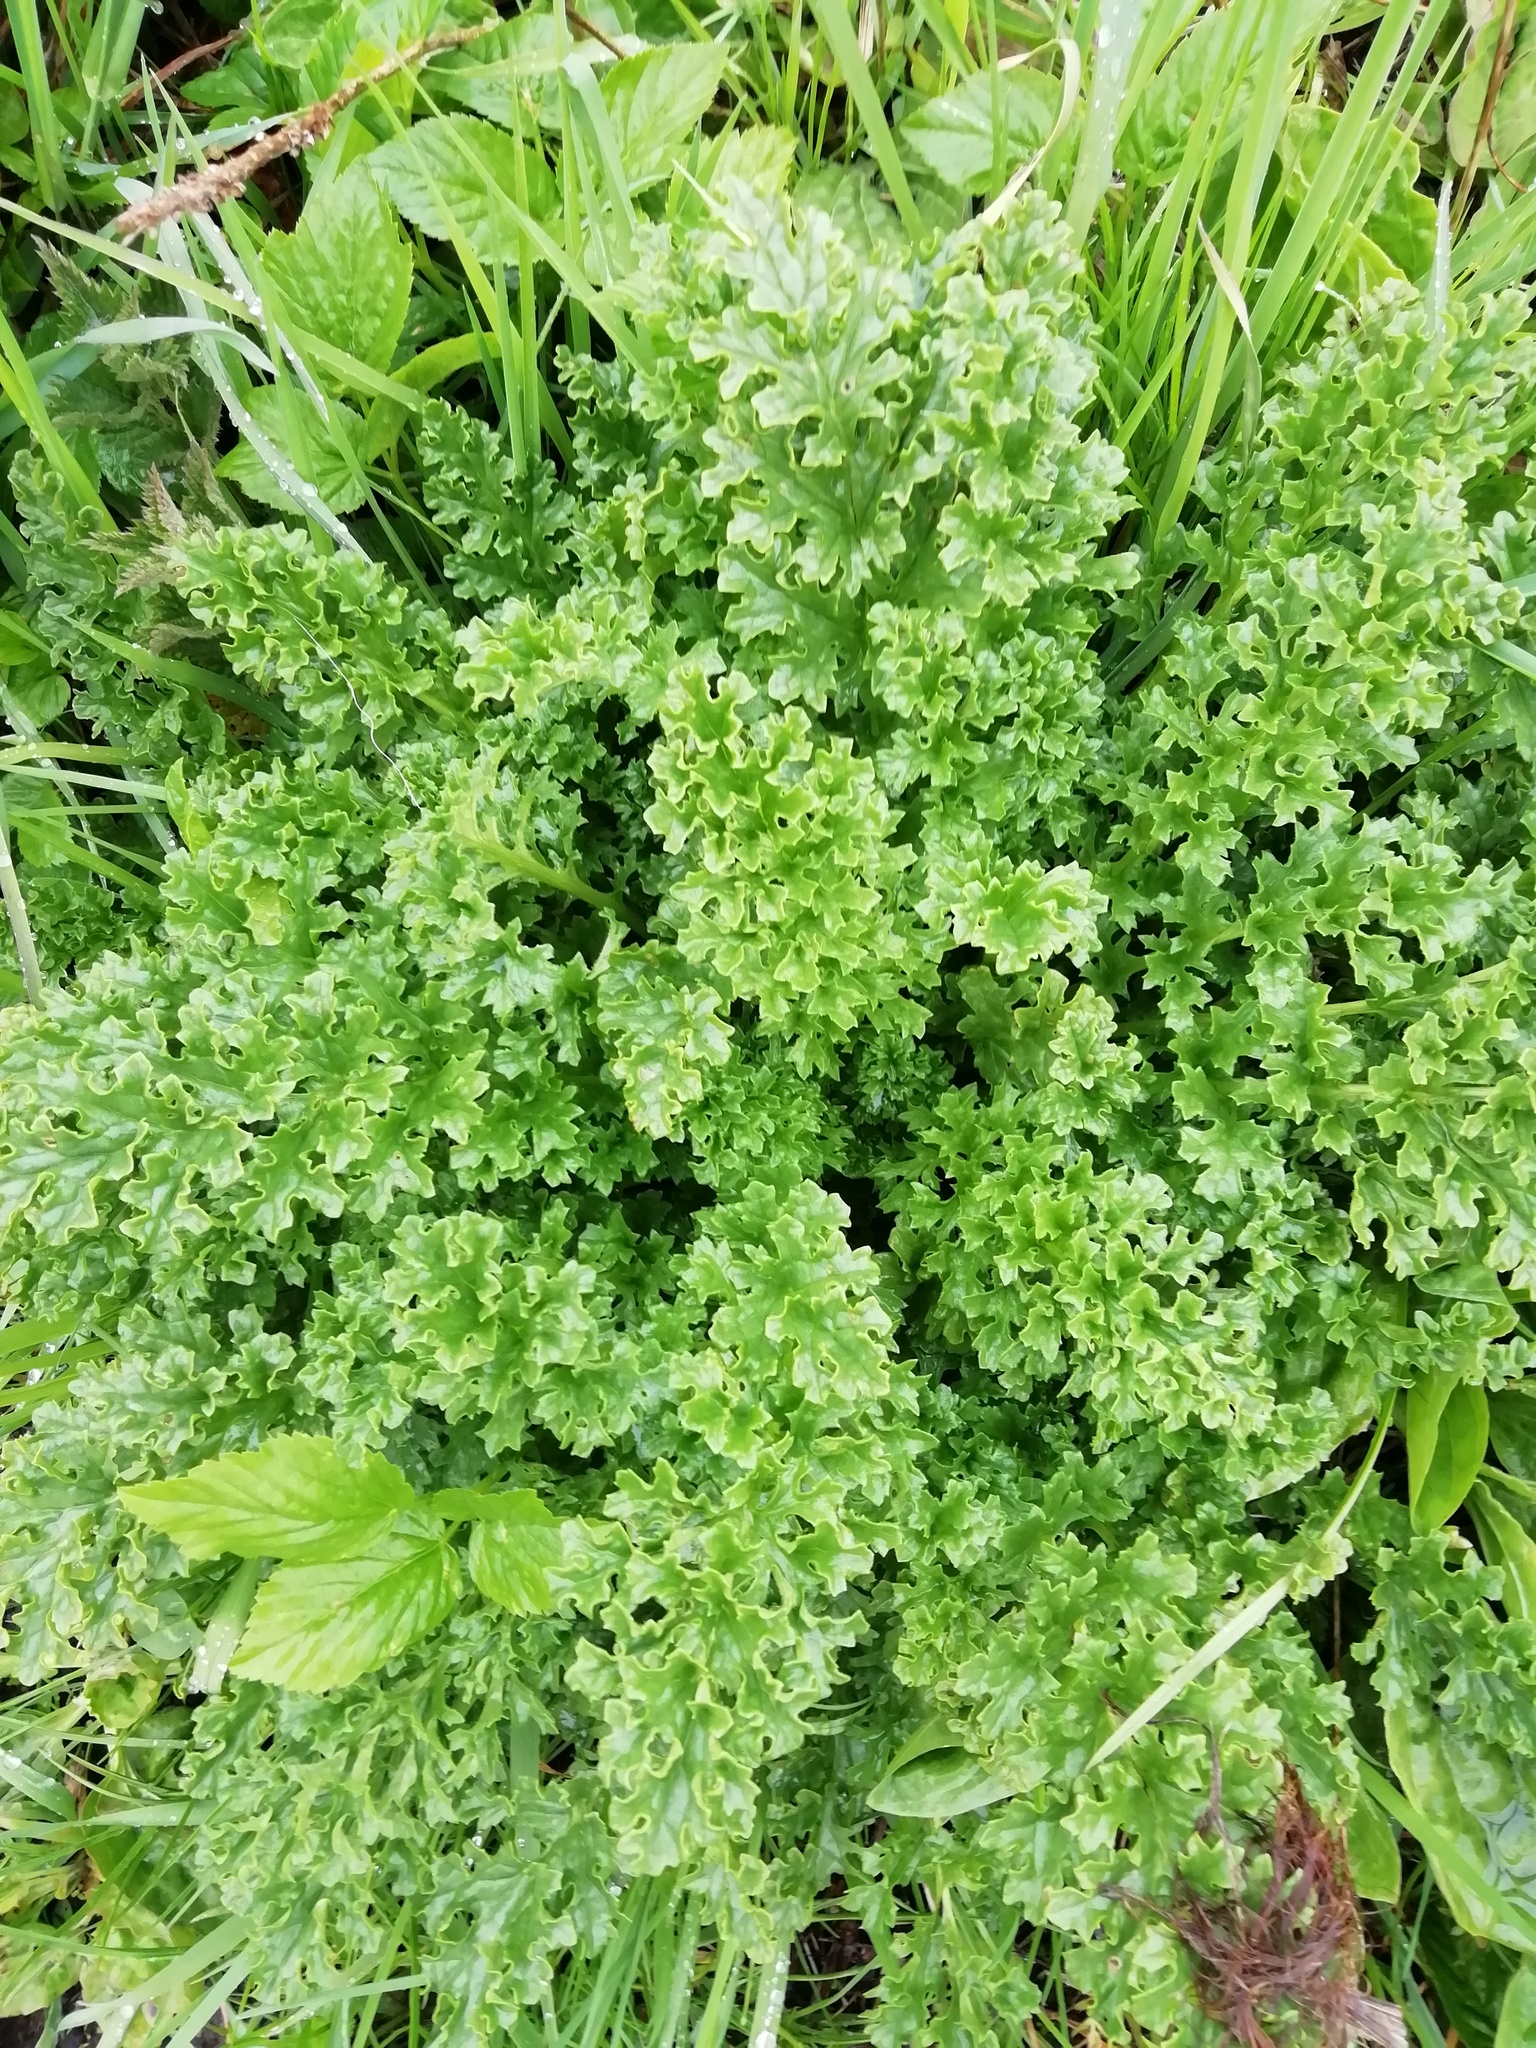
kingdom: Plantae
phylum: Tracheophyta
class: Magnoliopsida
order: Asterales
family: Asteraceae
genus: Jacobaea
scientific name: Jacobaea vulgaris
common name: Stinking willie
